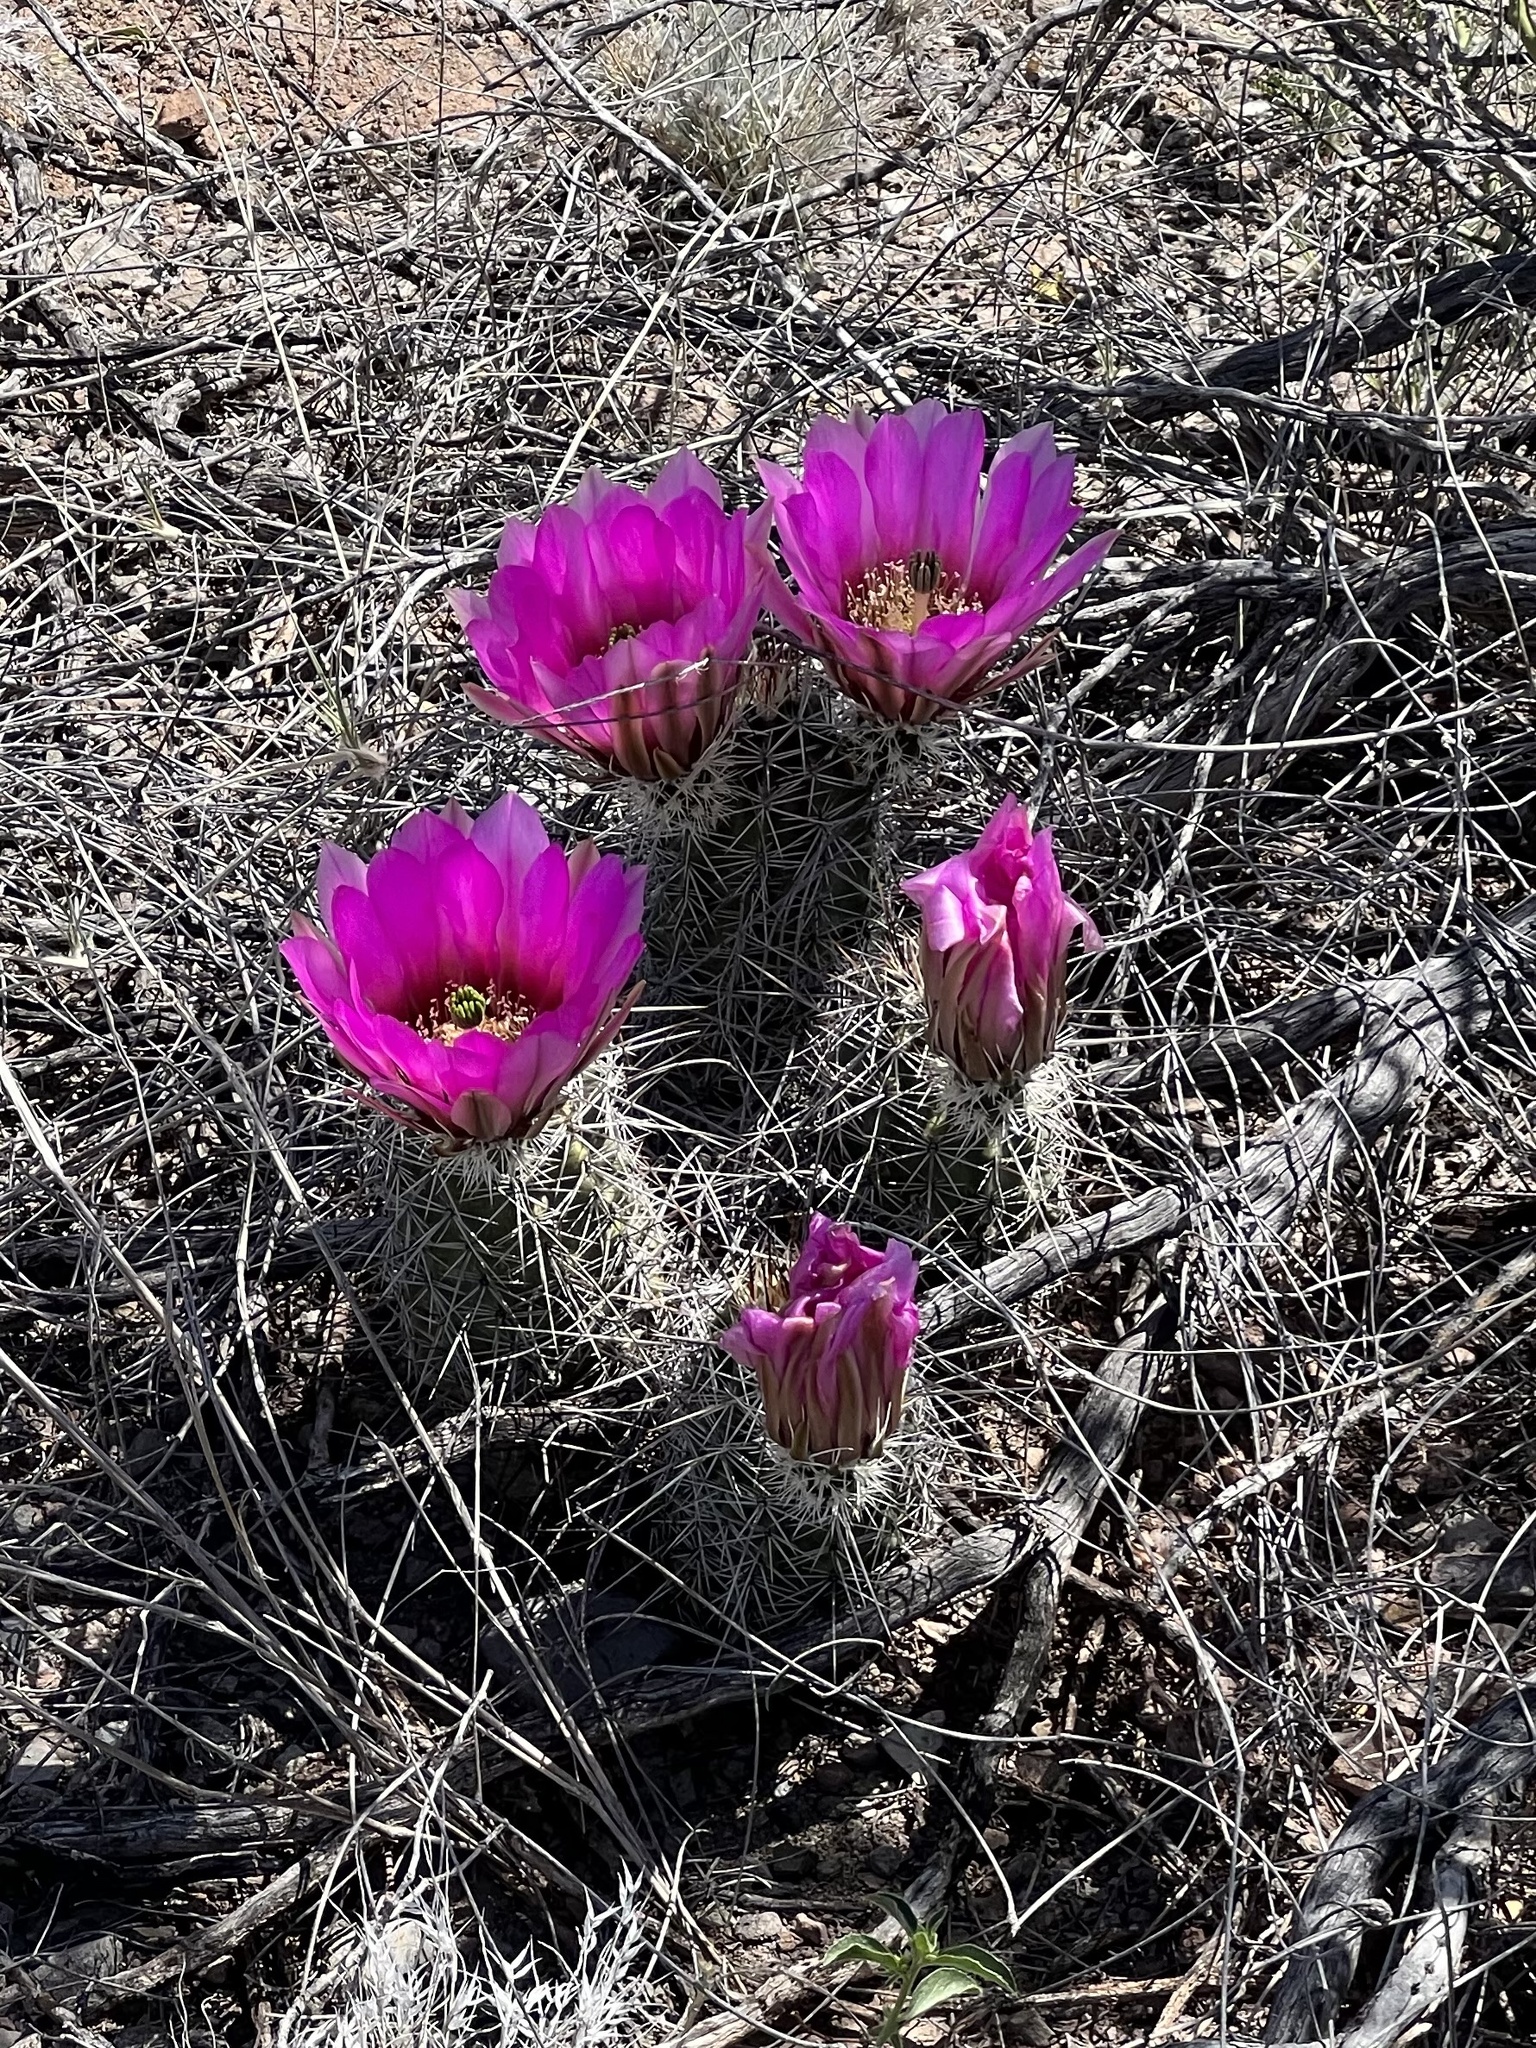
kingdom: Plantae
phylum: Tracheophyta
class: Magnoliopsida
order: Caryophyllales
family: Cactaceae
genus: Echinocereus
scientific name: Echinocereus fasciculatus
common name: Bundle hedgehog
